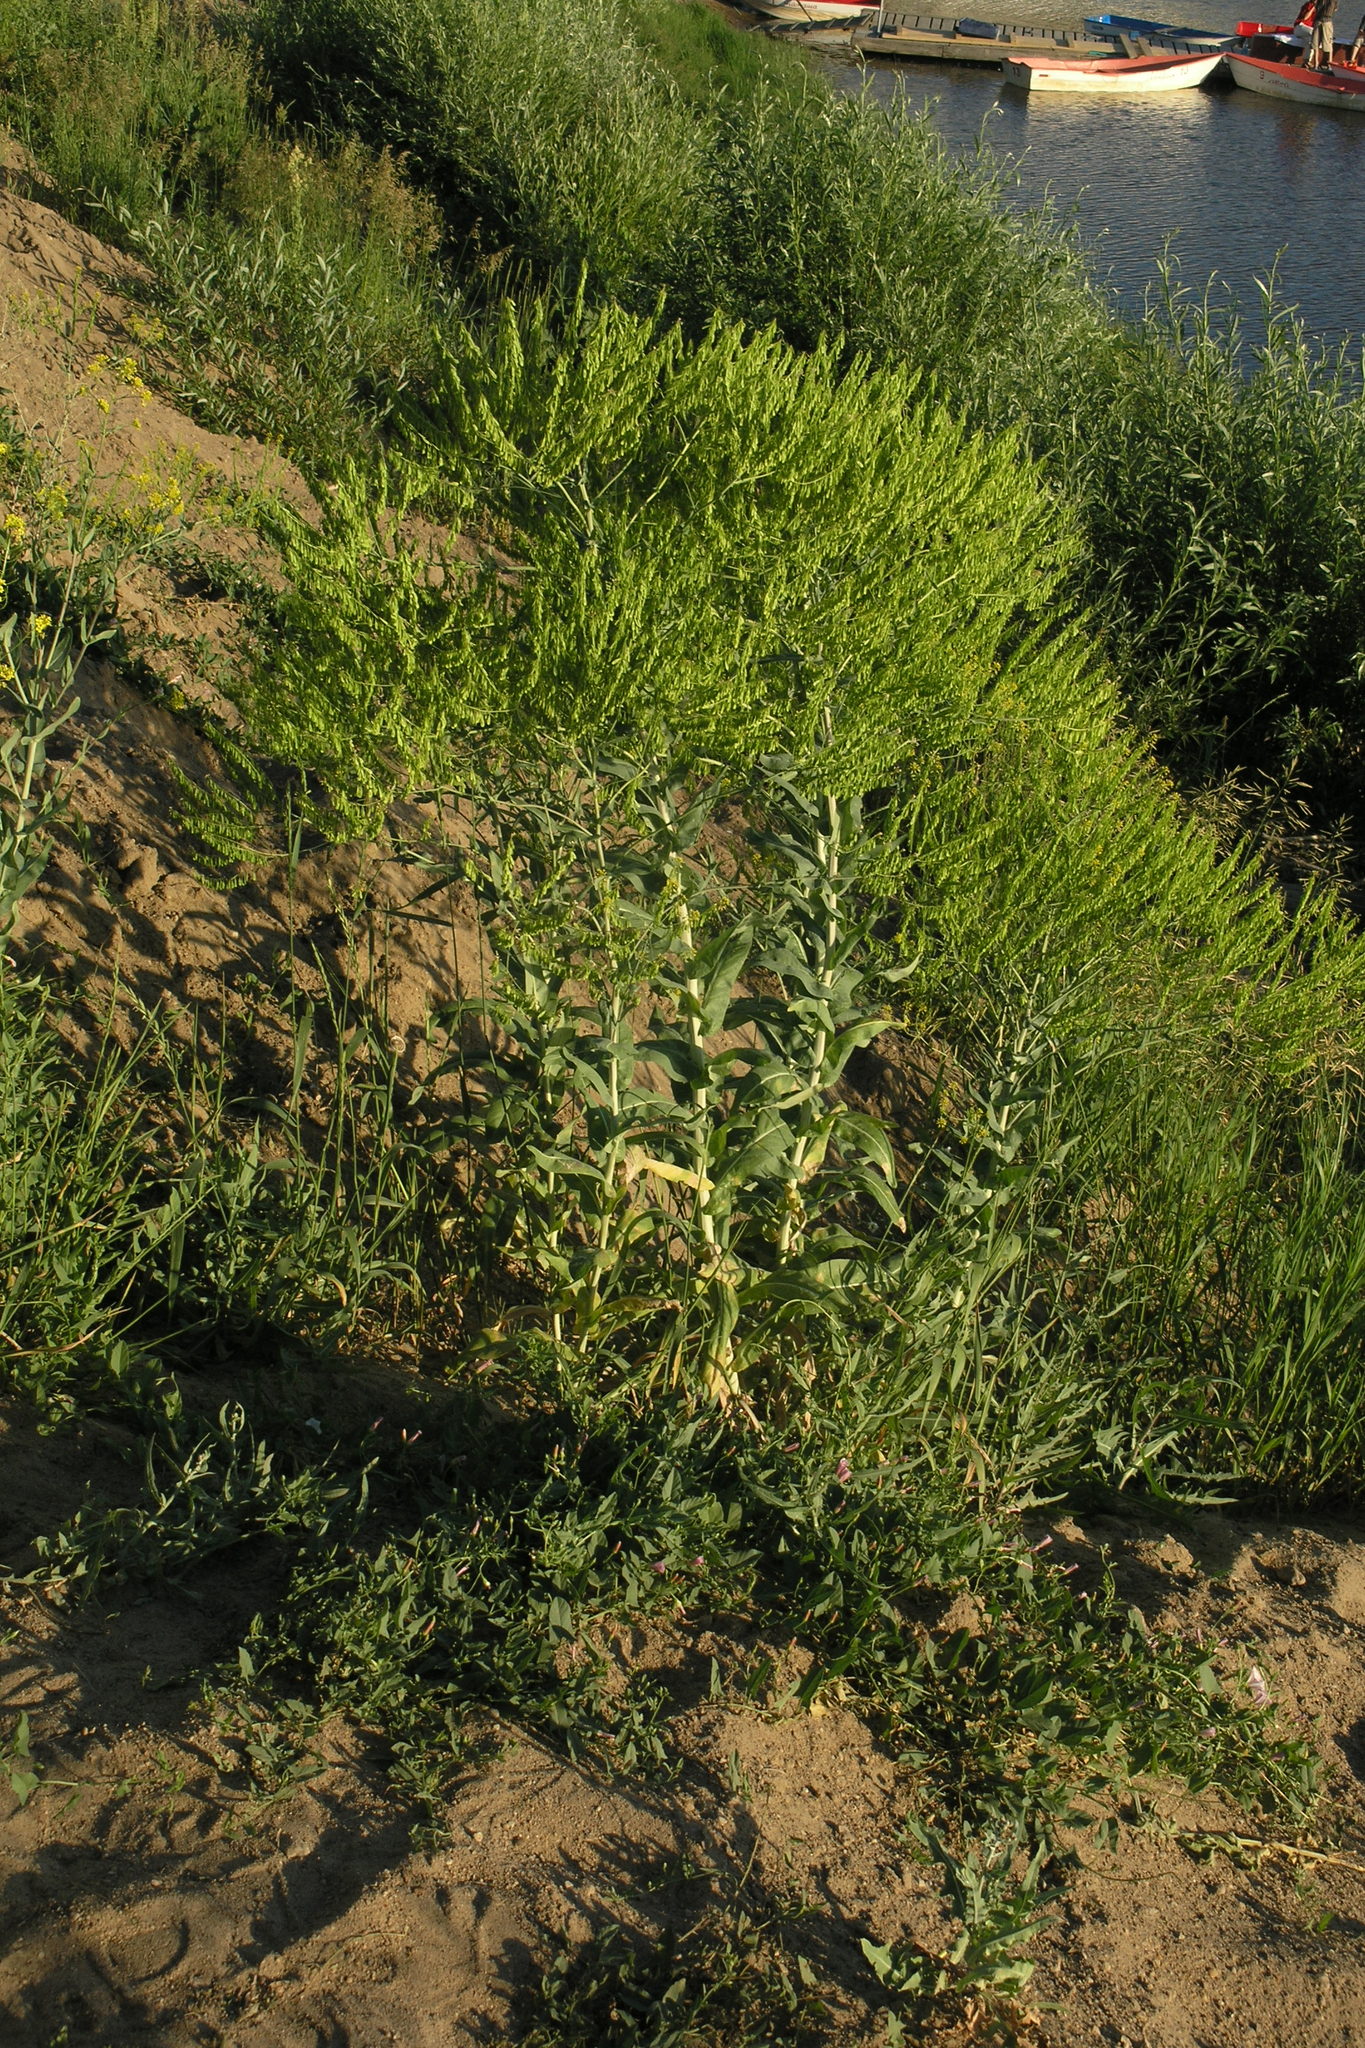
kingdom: Plantae
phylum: Tracheophyta
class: Magnoliopsida
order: Brassicales
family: Brassicaceae
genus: Isatis
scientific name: Isatis tinctoria
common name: Woad
